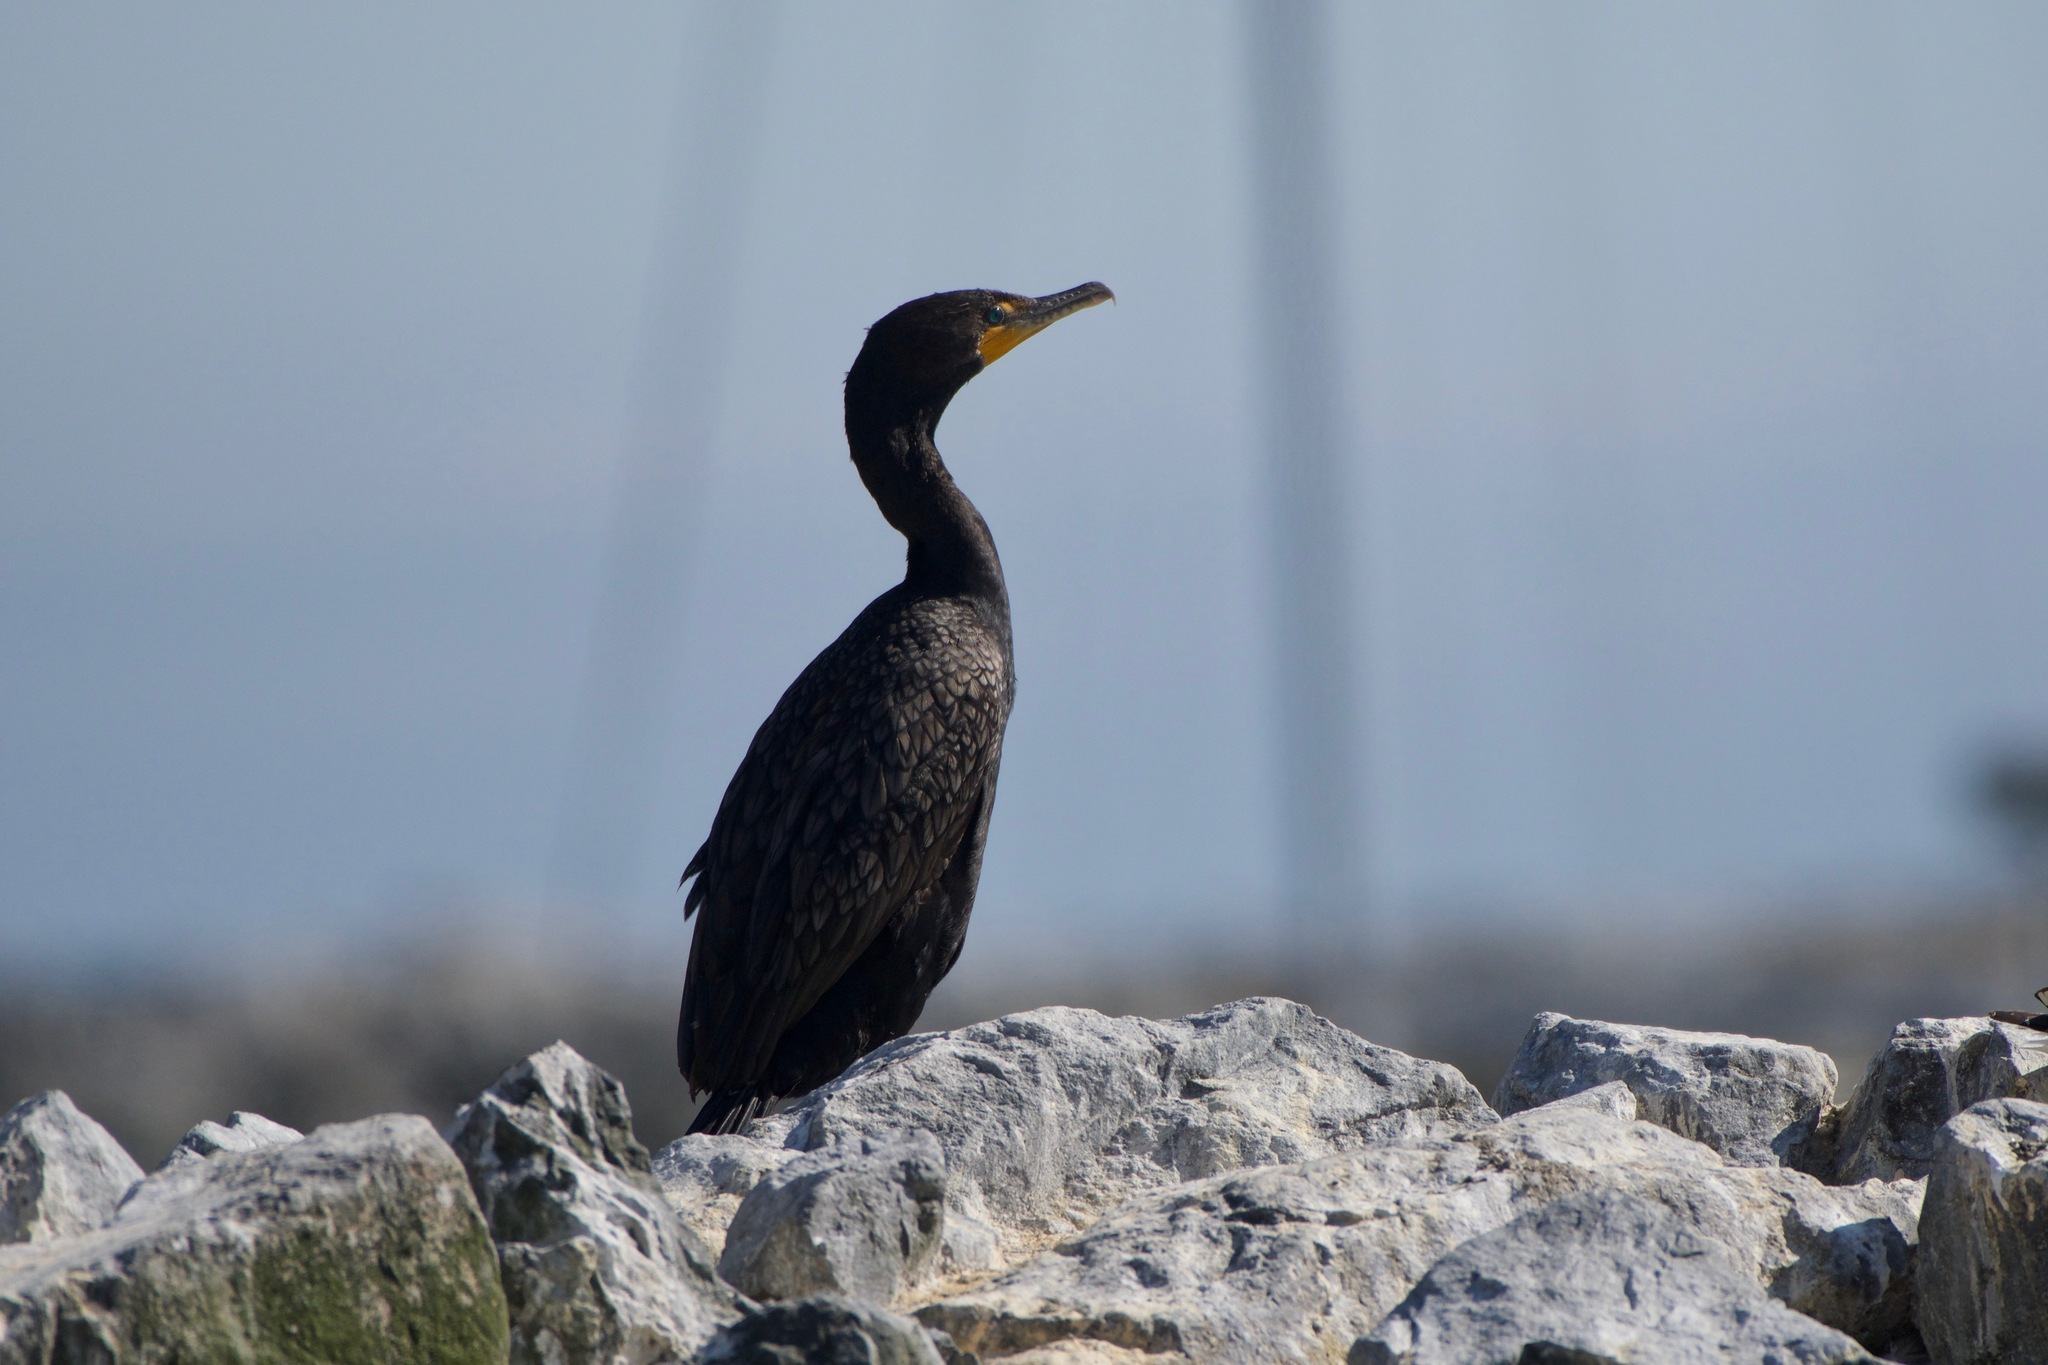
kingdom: Animalia
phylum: Chordata
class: Aves
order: Suliformes
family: Phalacrocoracidae
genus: Phalacrocorax
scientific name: Phalacrocorax auritus
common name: Double-crested cormorant
